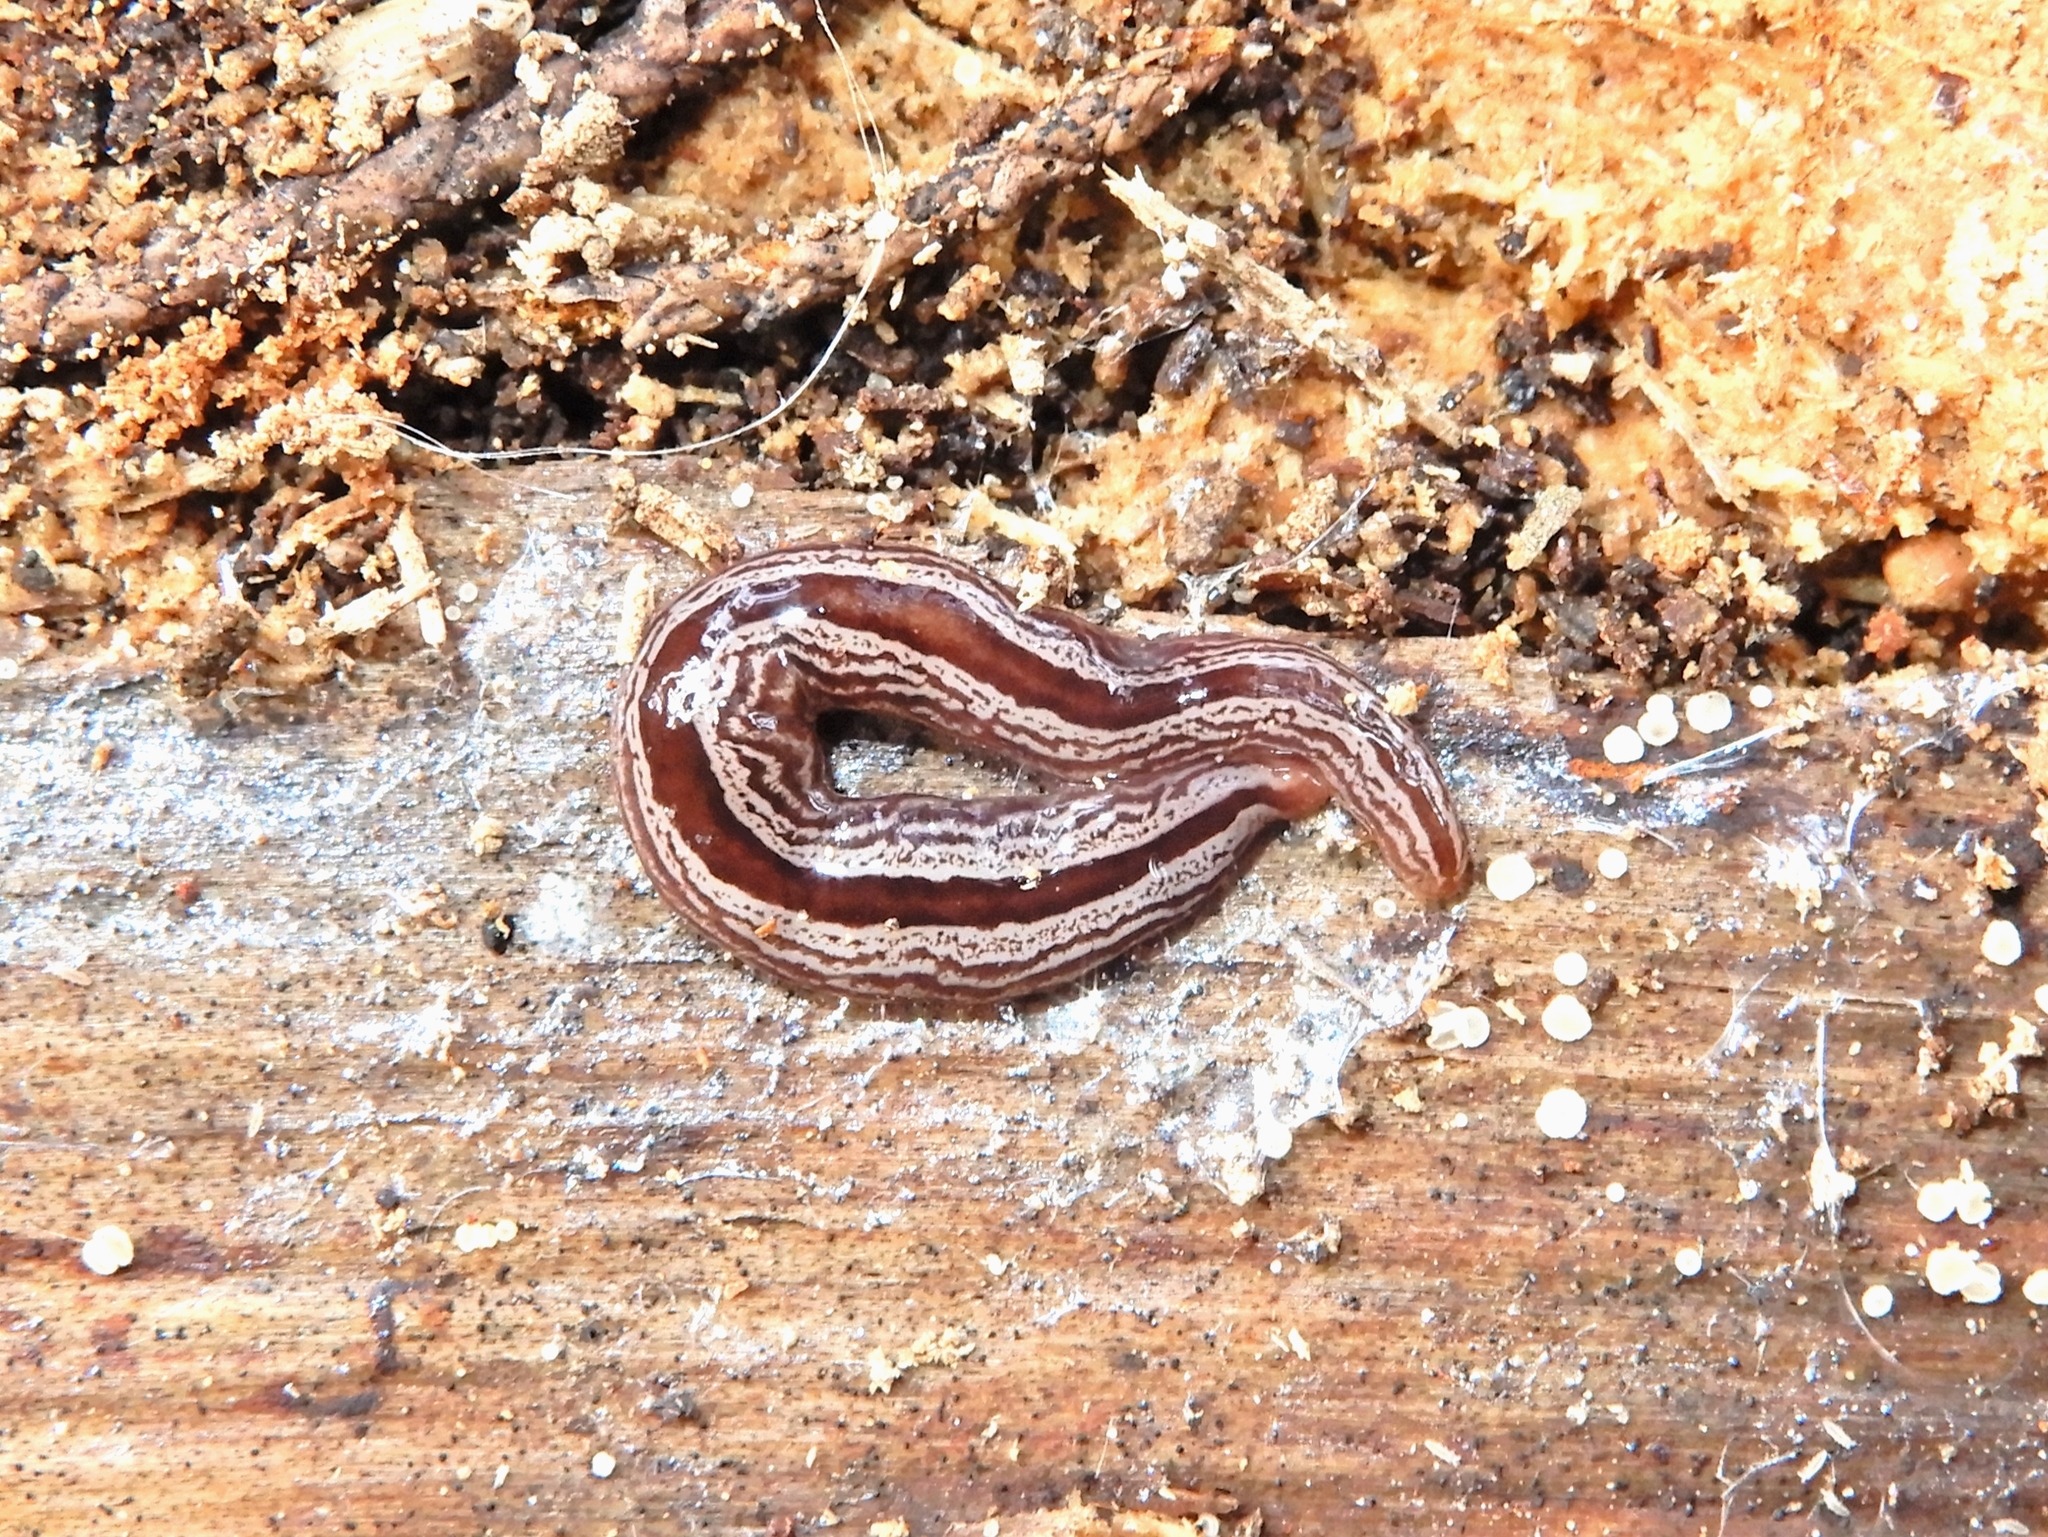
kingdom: Animalia
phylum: Platyhelminthes
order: Tricladida
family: Geoplanidae
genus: Artioposthia
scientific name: Artioposthia exulans
